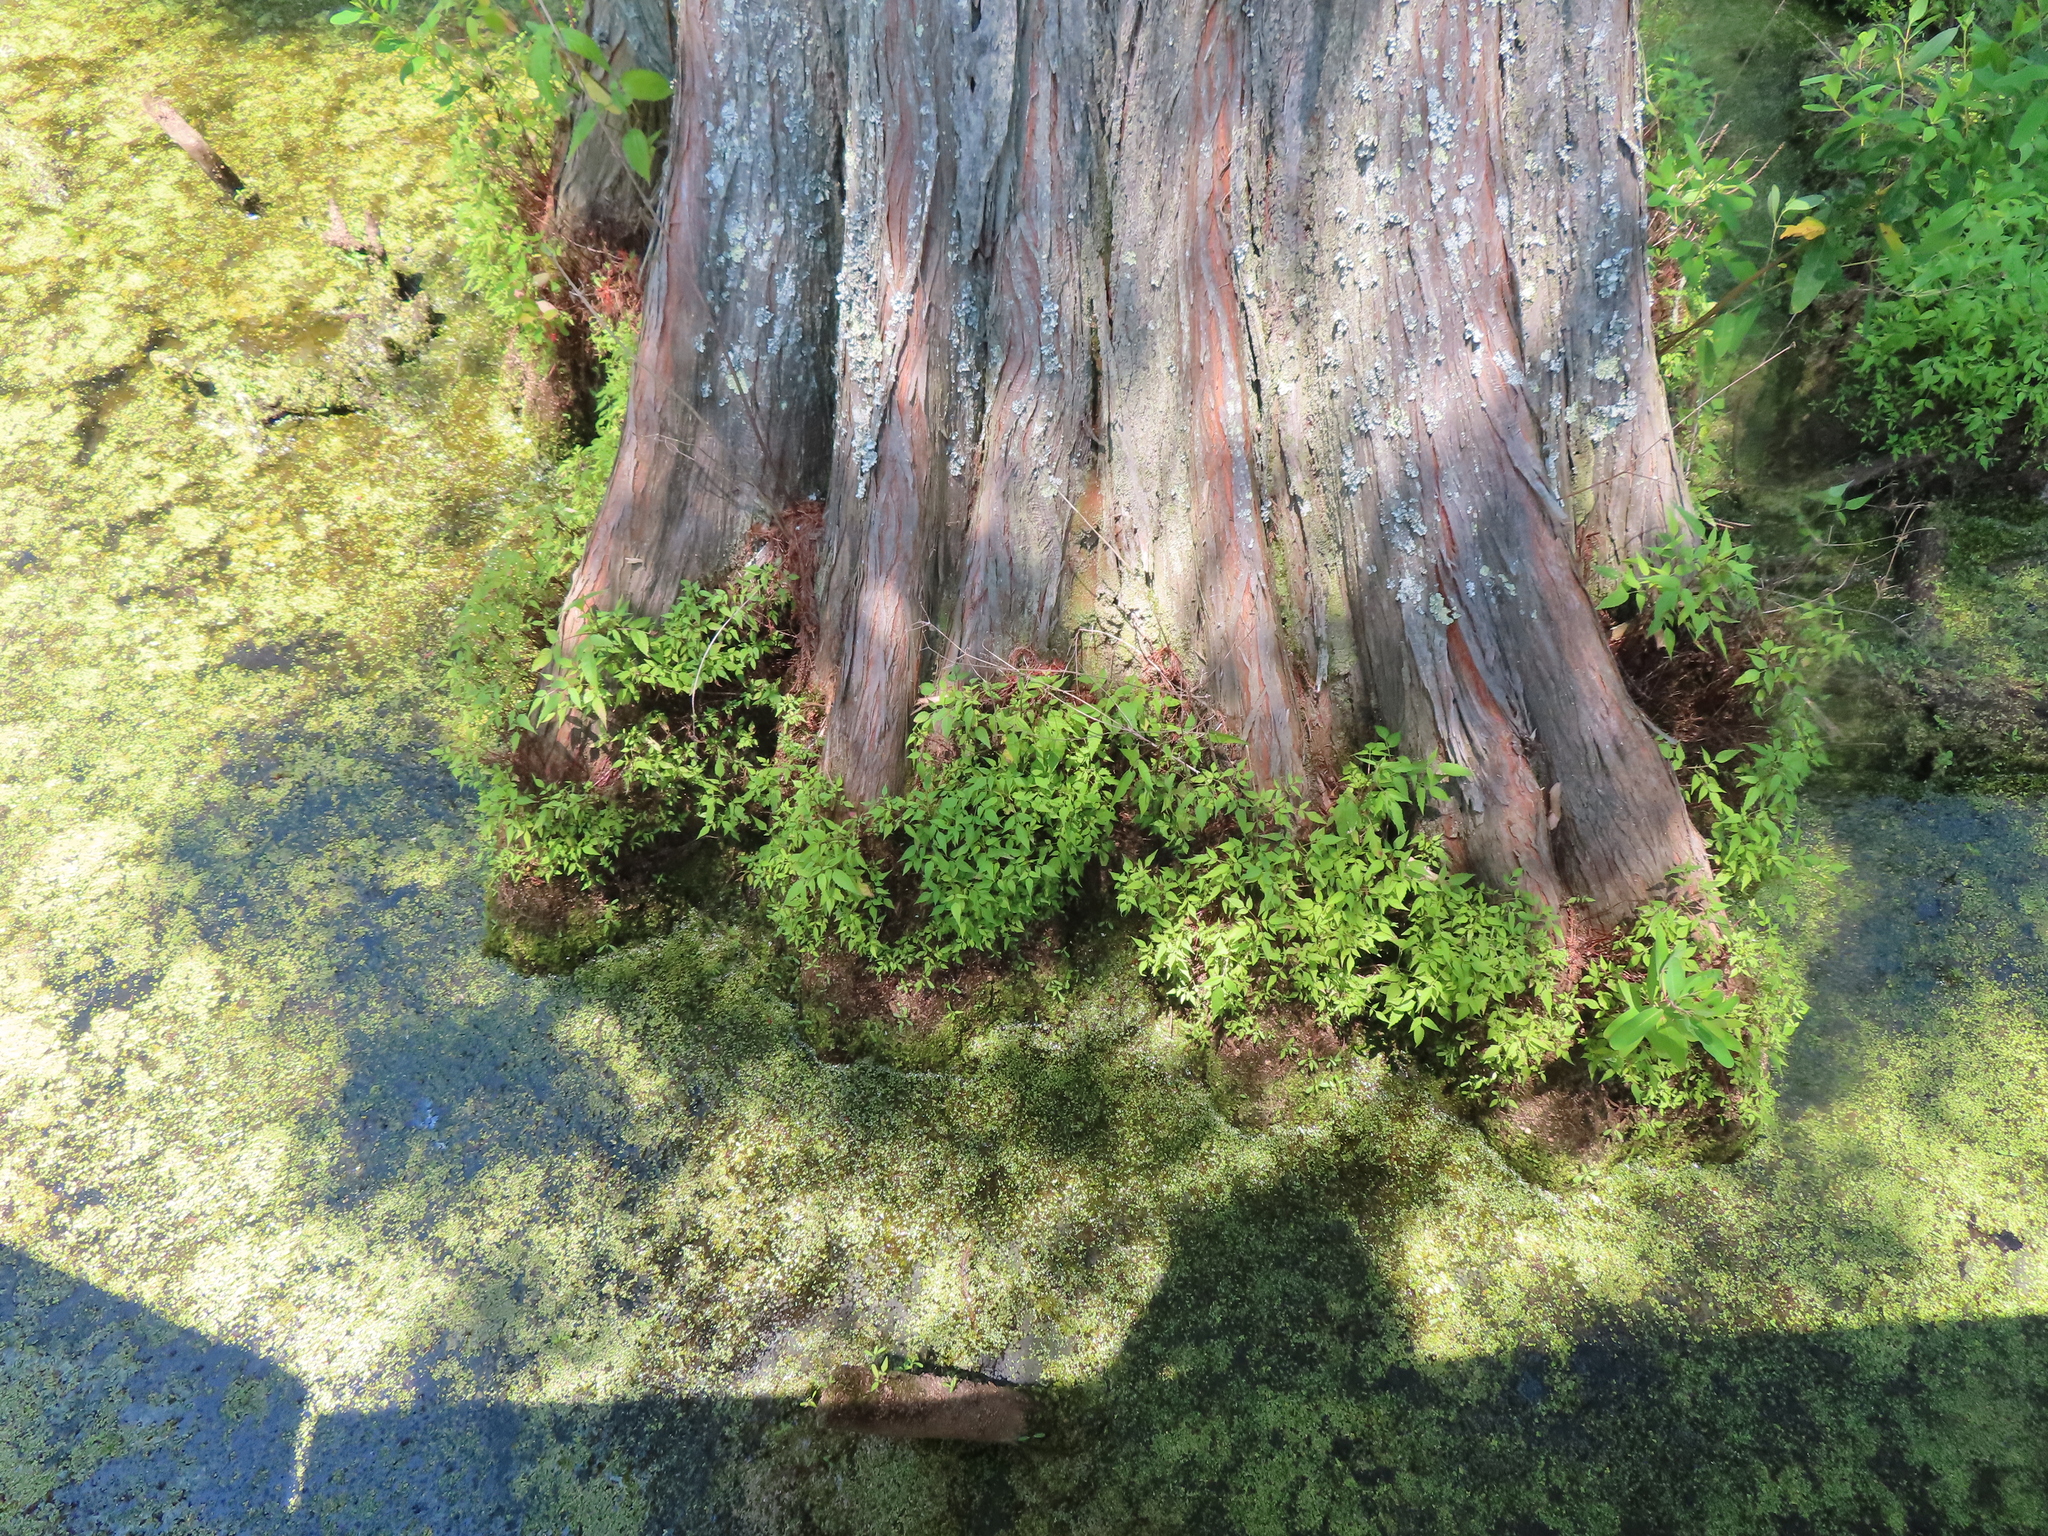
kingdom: Plantae
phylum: Tracheophyta
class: Pinopsida
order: Pinales
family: Cupressaceae
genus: Taxodium
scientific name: Taxodium distichum
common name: Bald cypress
